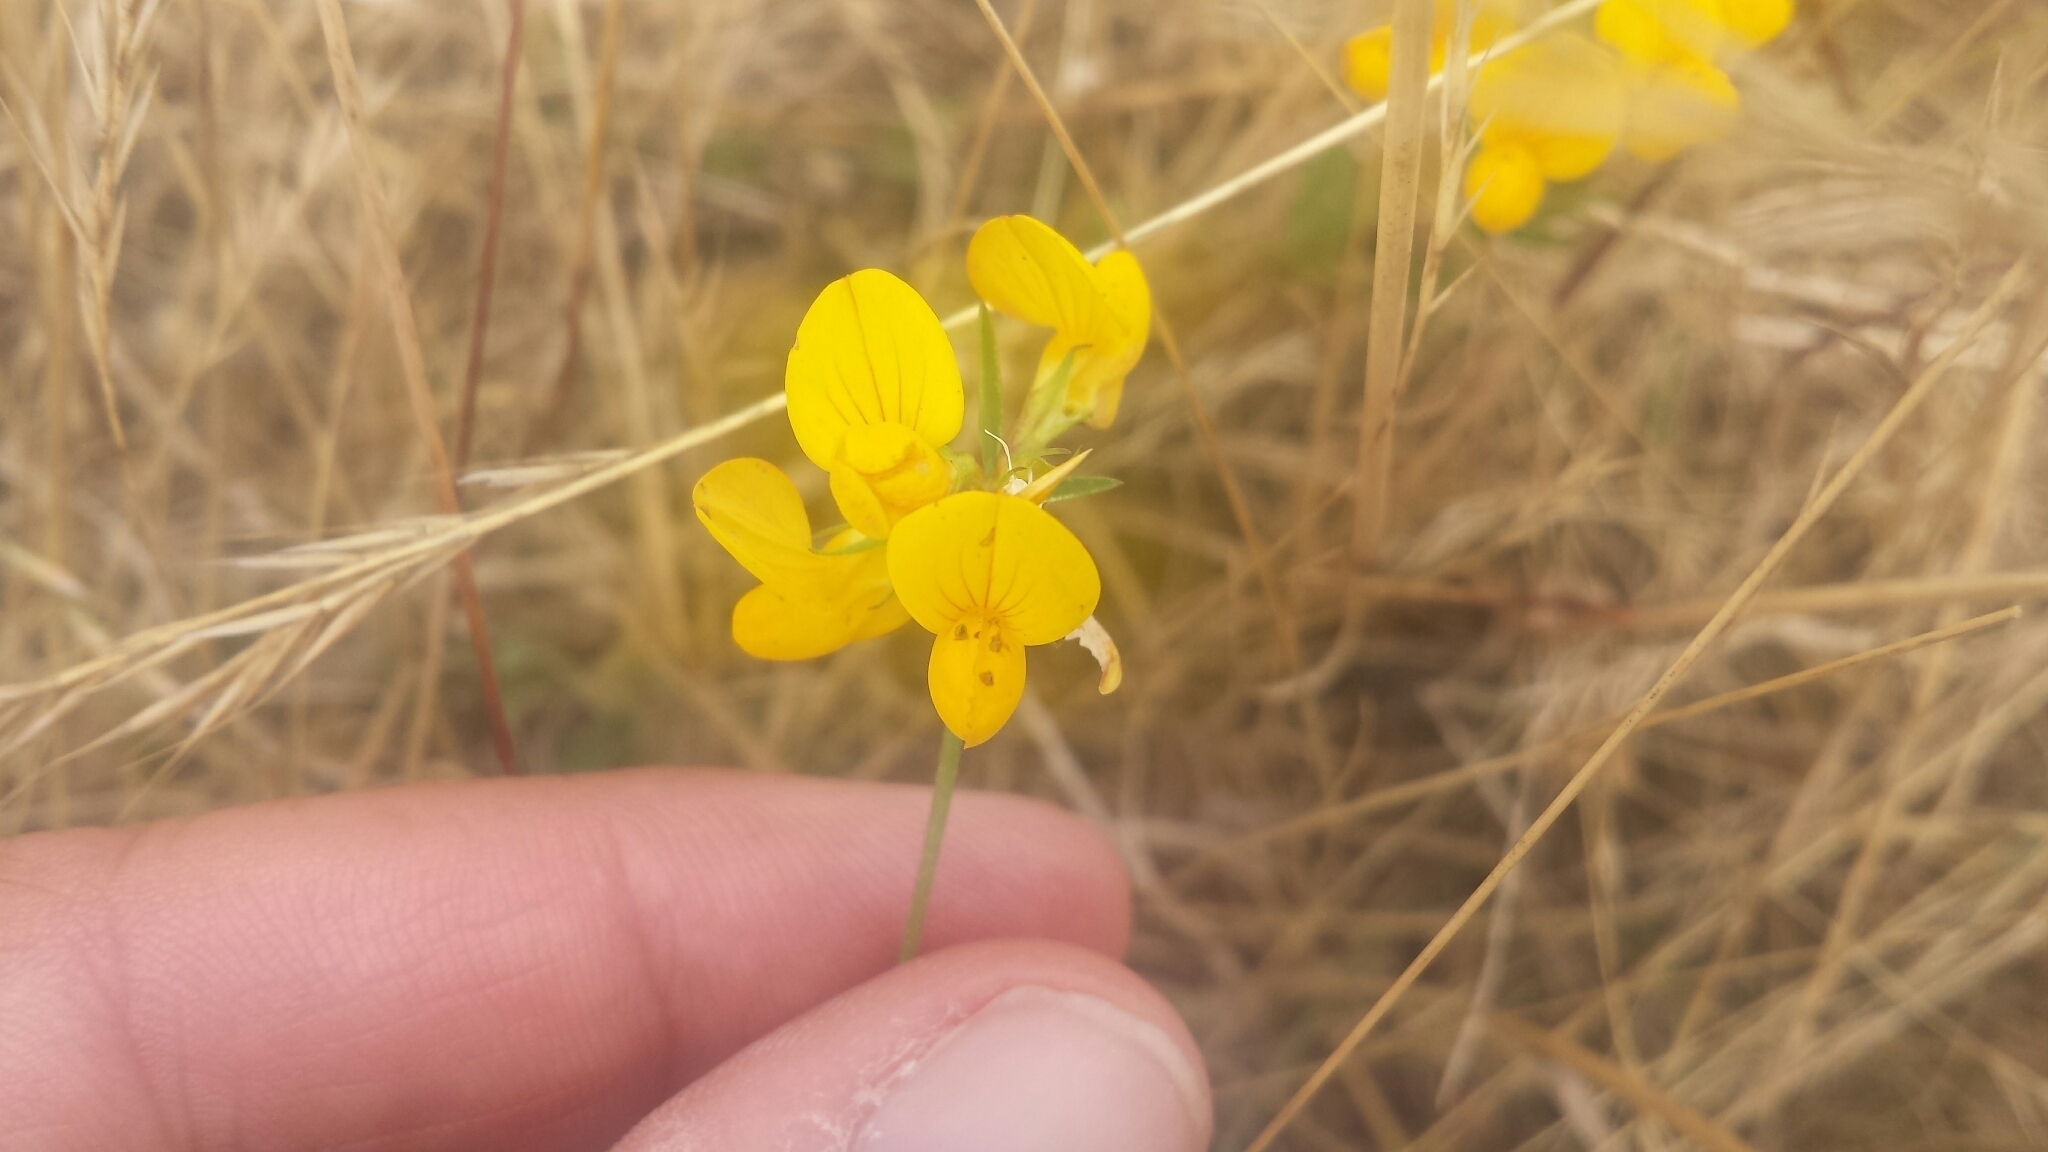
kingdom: Plantae
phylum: Tracheophyta
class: Magnoliopsida
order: Fabales
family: Fabaceae
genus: Lotus
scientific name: Lotus tenuis
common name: Narrow-leaved bird's-foot-trefoil
